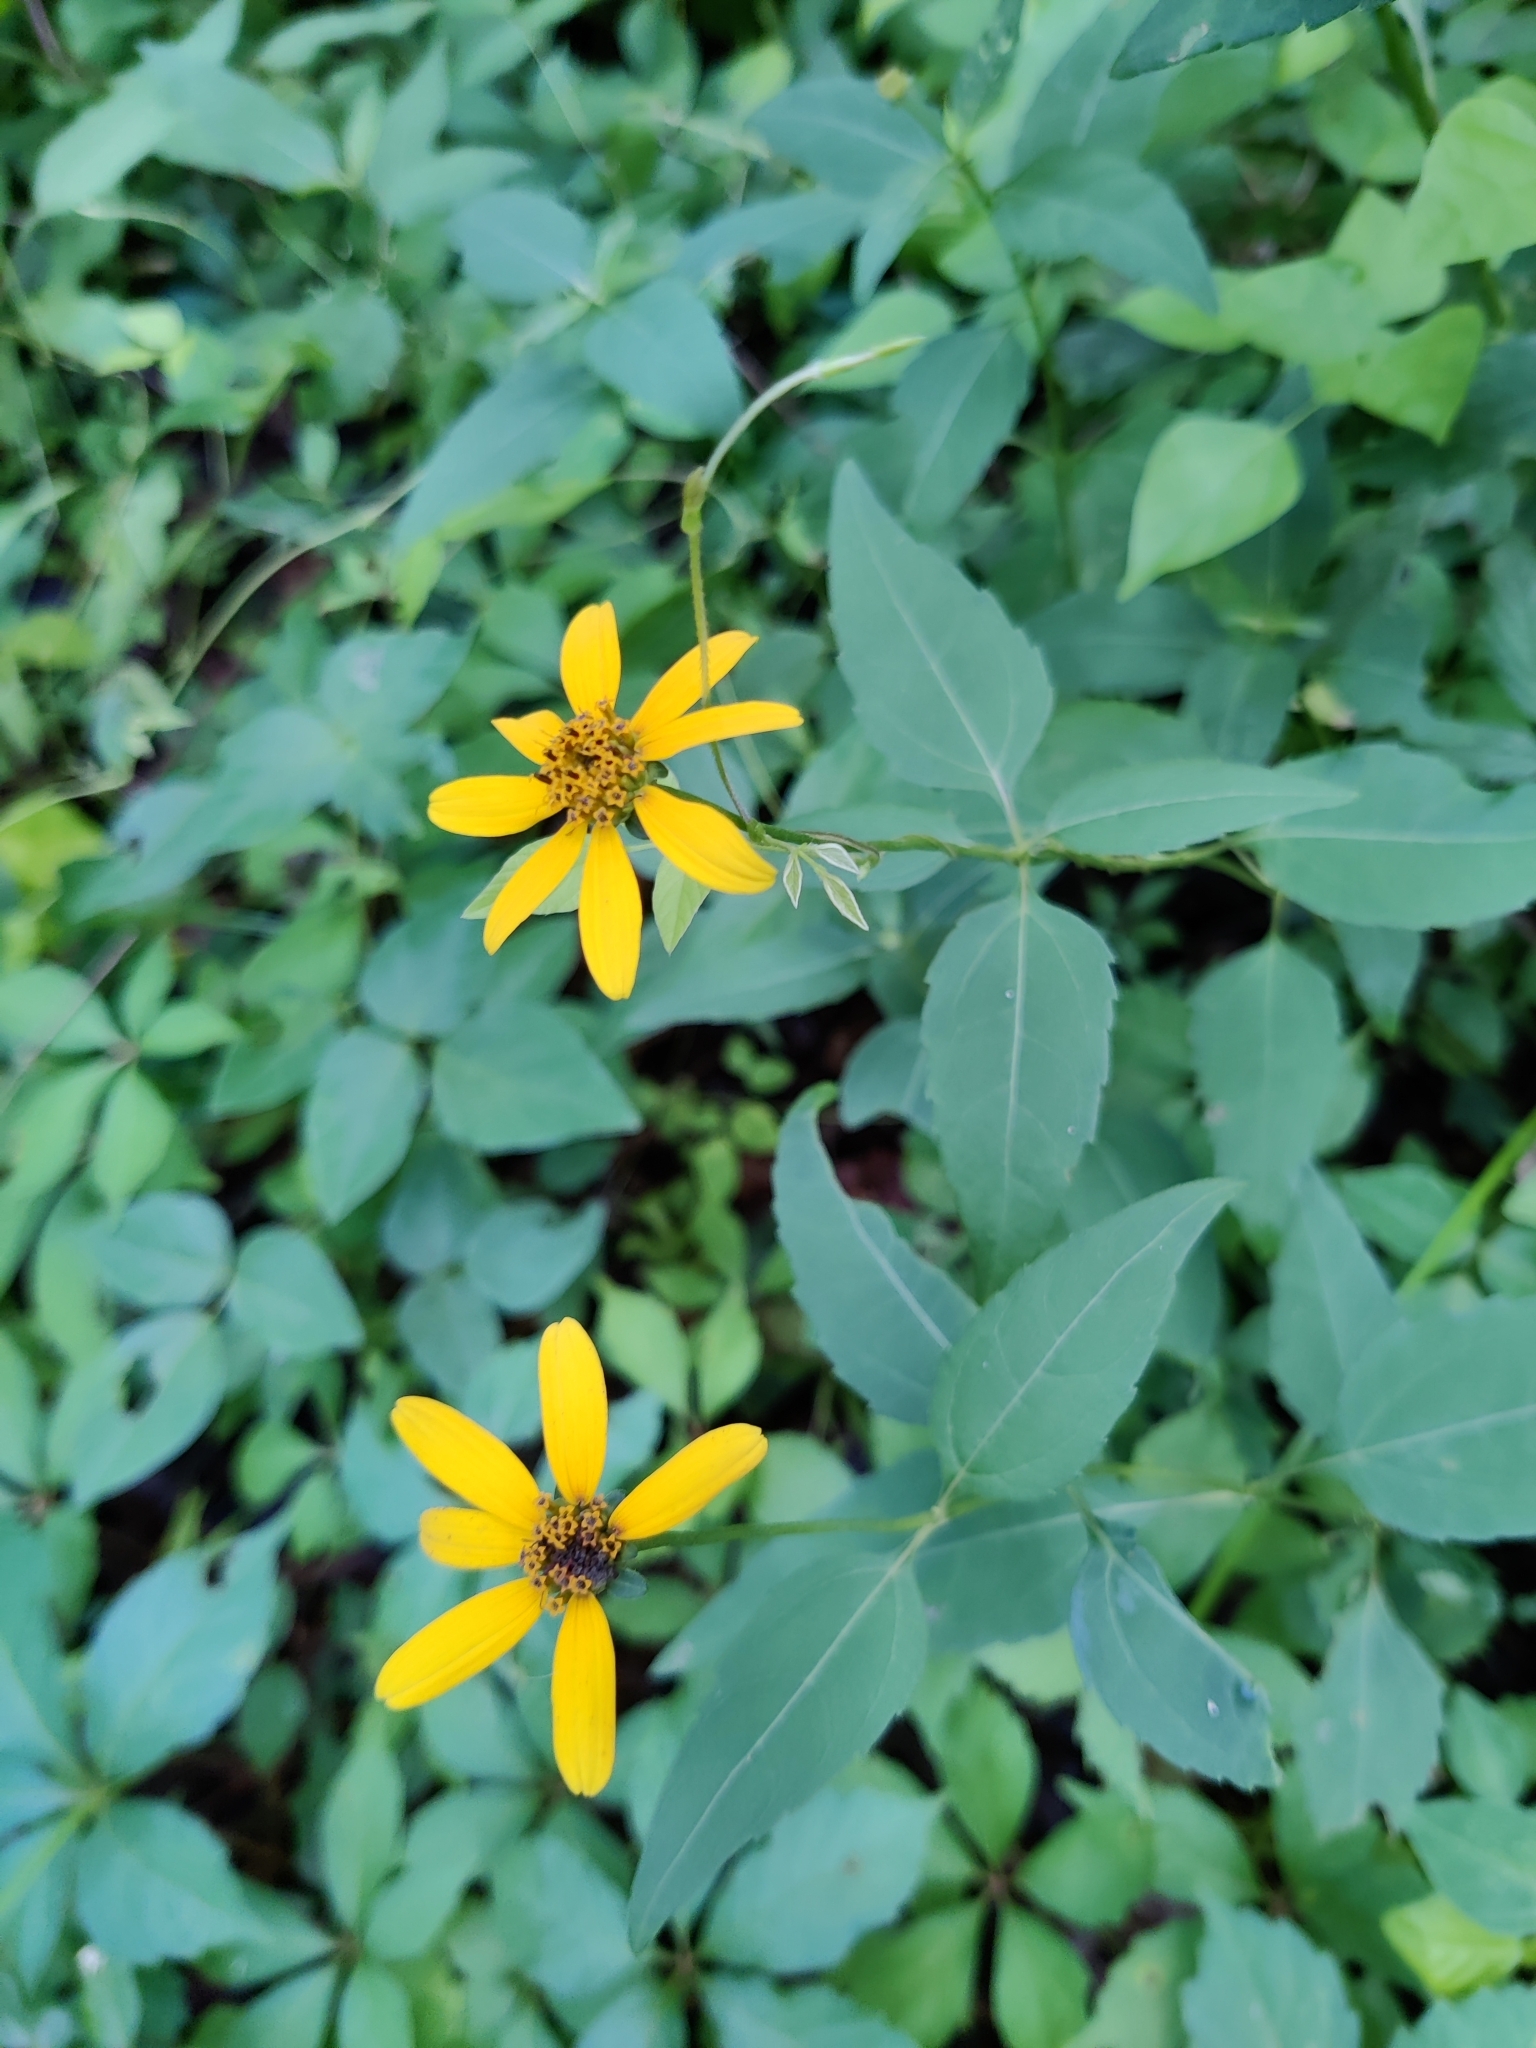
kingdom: Plantae
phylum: Tracheophyta
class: Magnoliopsida
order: Asterales
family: Asteraceae
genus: Heliopsis
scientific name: Heliopsis helianthoides
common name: False sunflower
